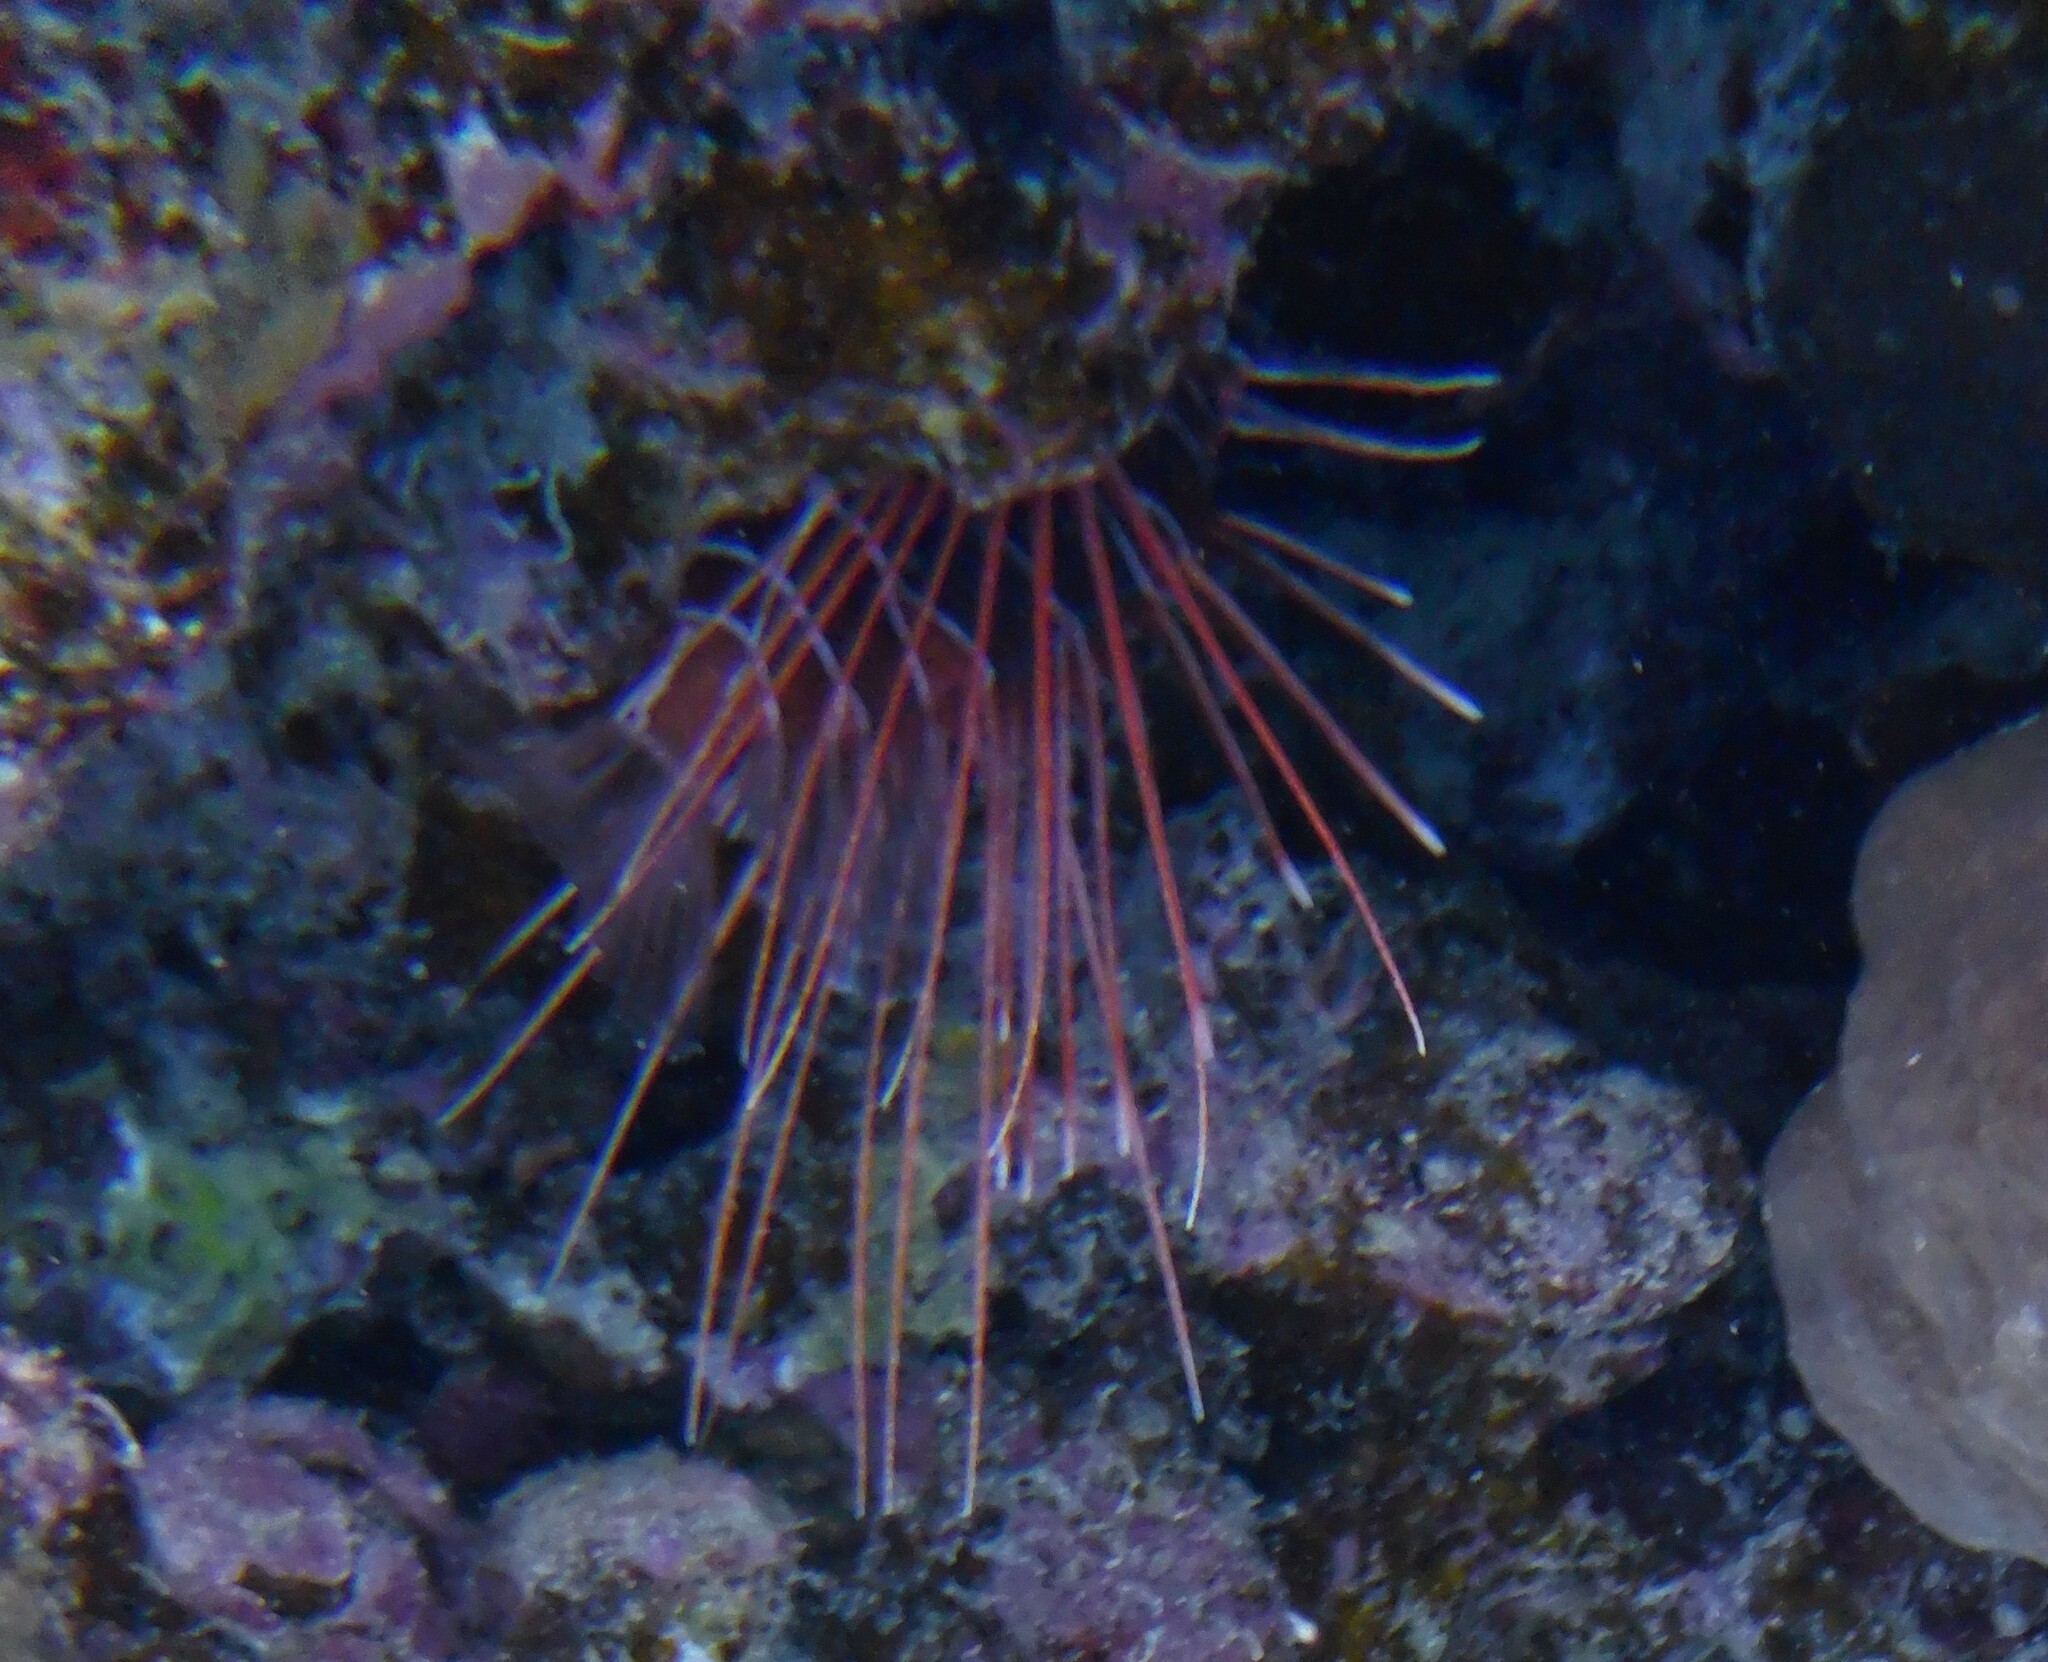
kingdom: Animalia
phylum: Chordata
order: Scorpaeniformes
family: Scorpaenidae
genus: Pterois
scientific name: Pterois cincta
